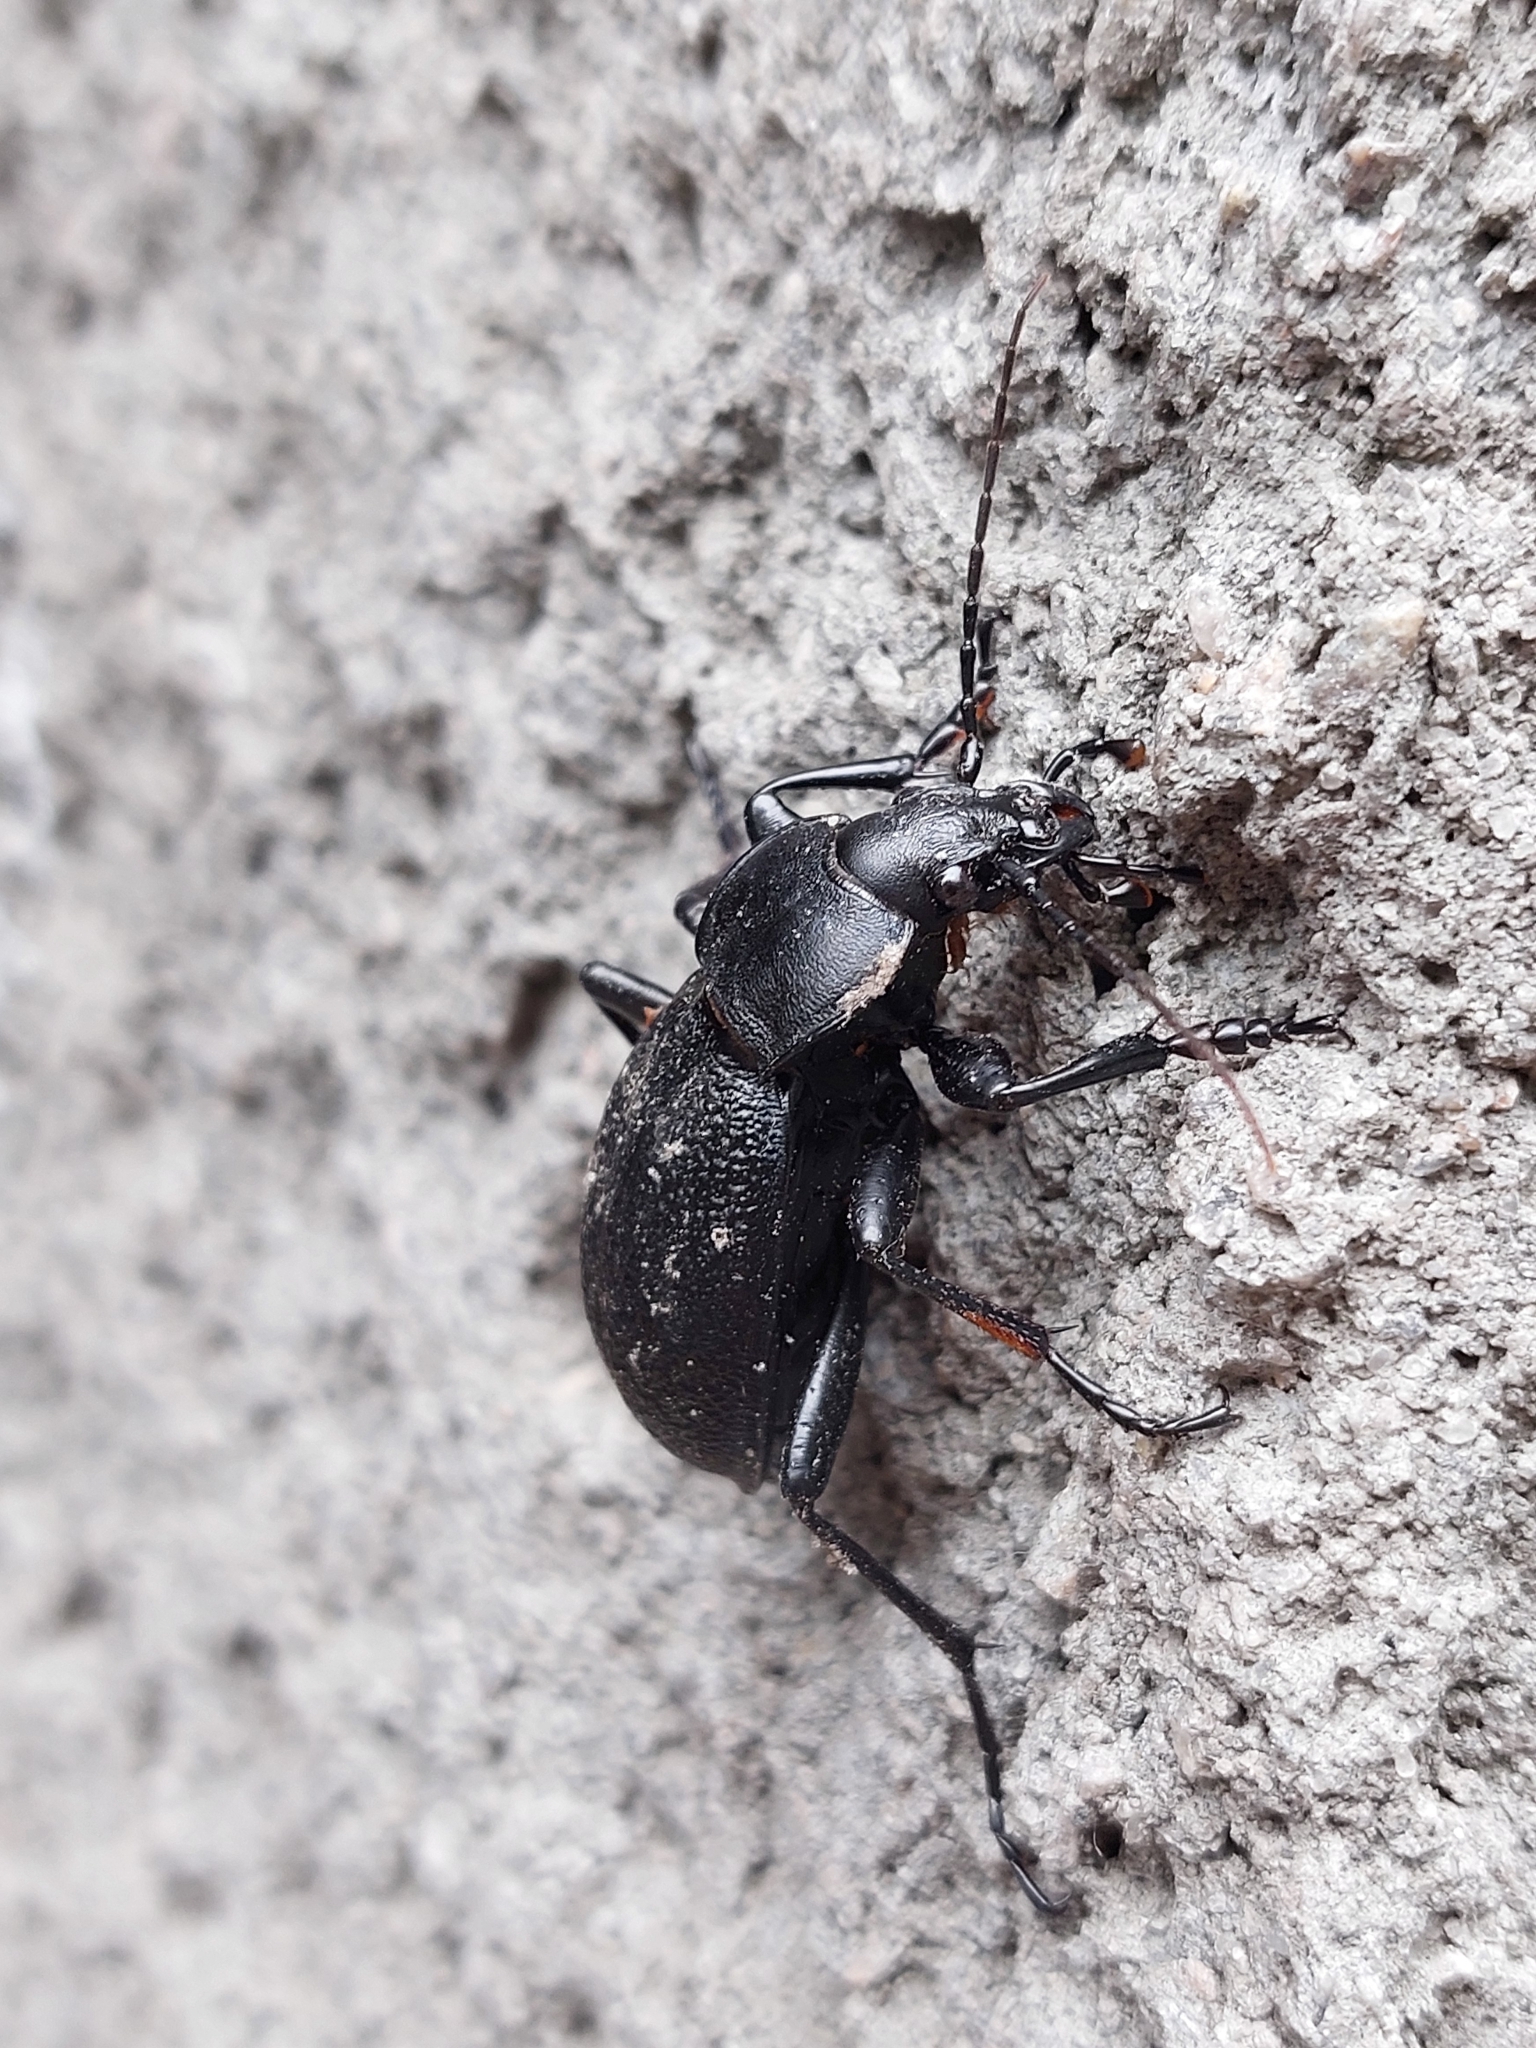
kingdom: Animalia
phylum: Arthropoda
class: Insecta
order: Coleoptera
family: Carabidae
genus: Carabus
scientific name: Carabus coriaceus
